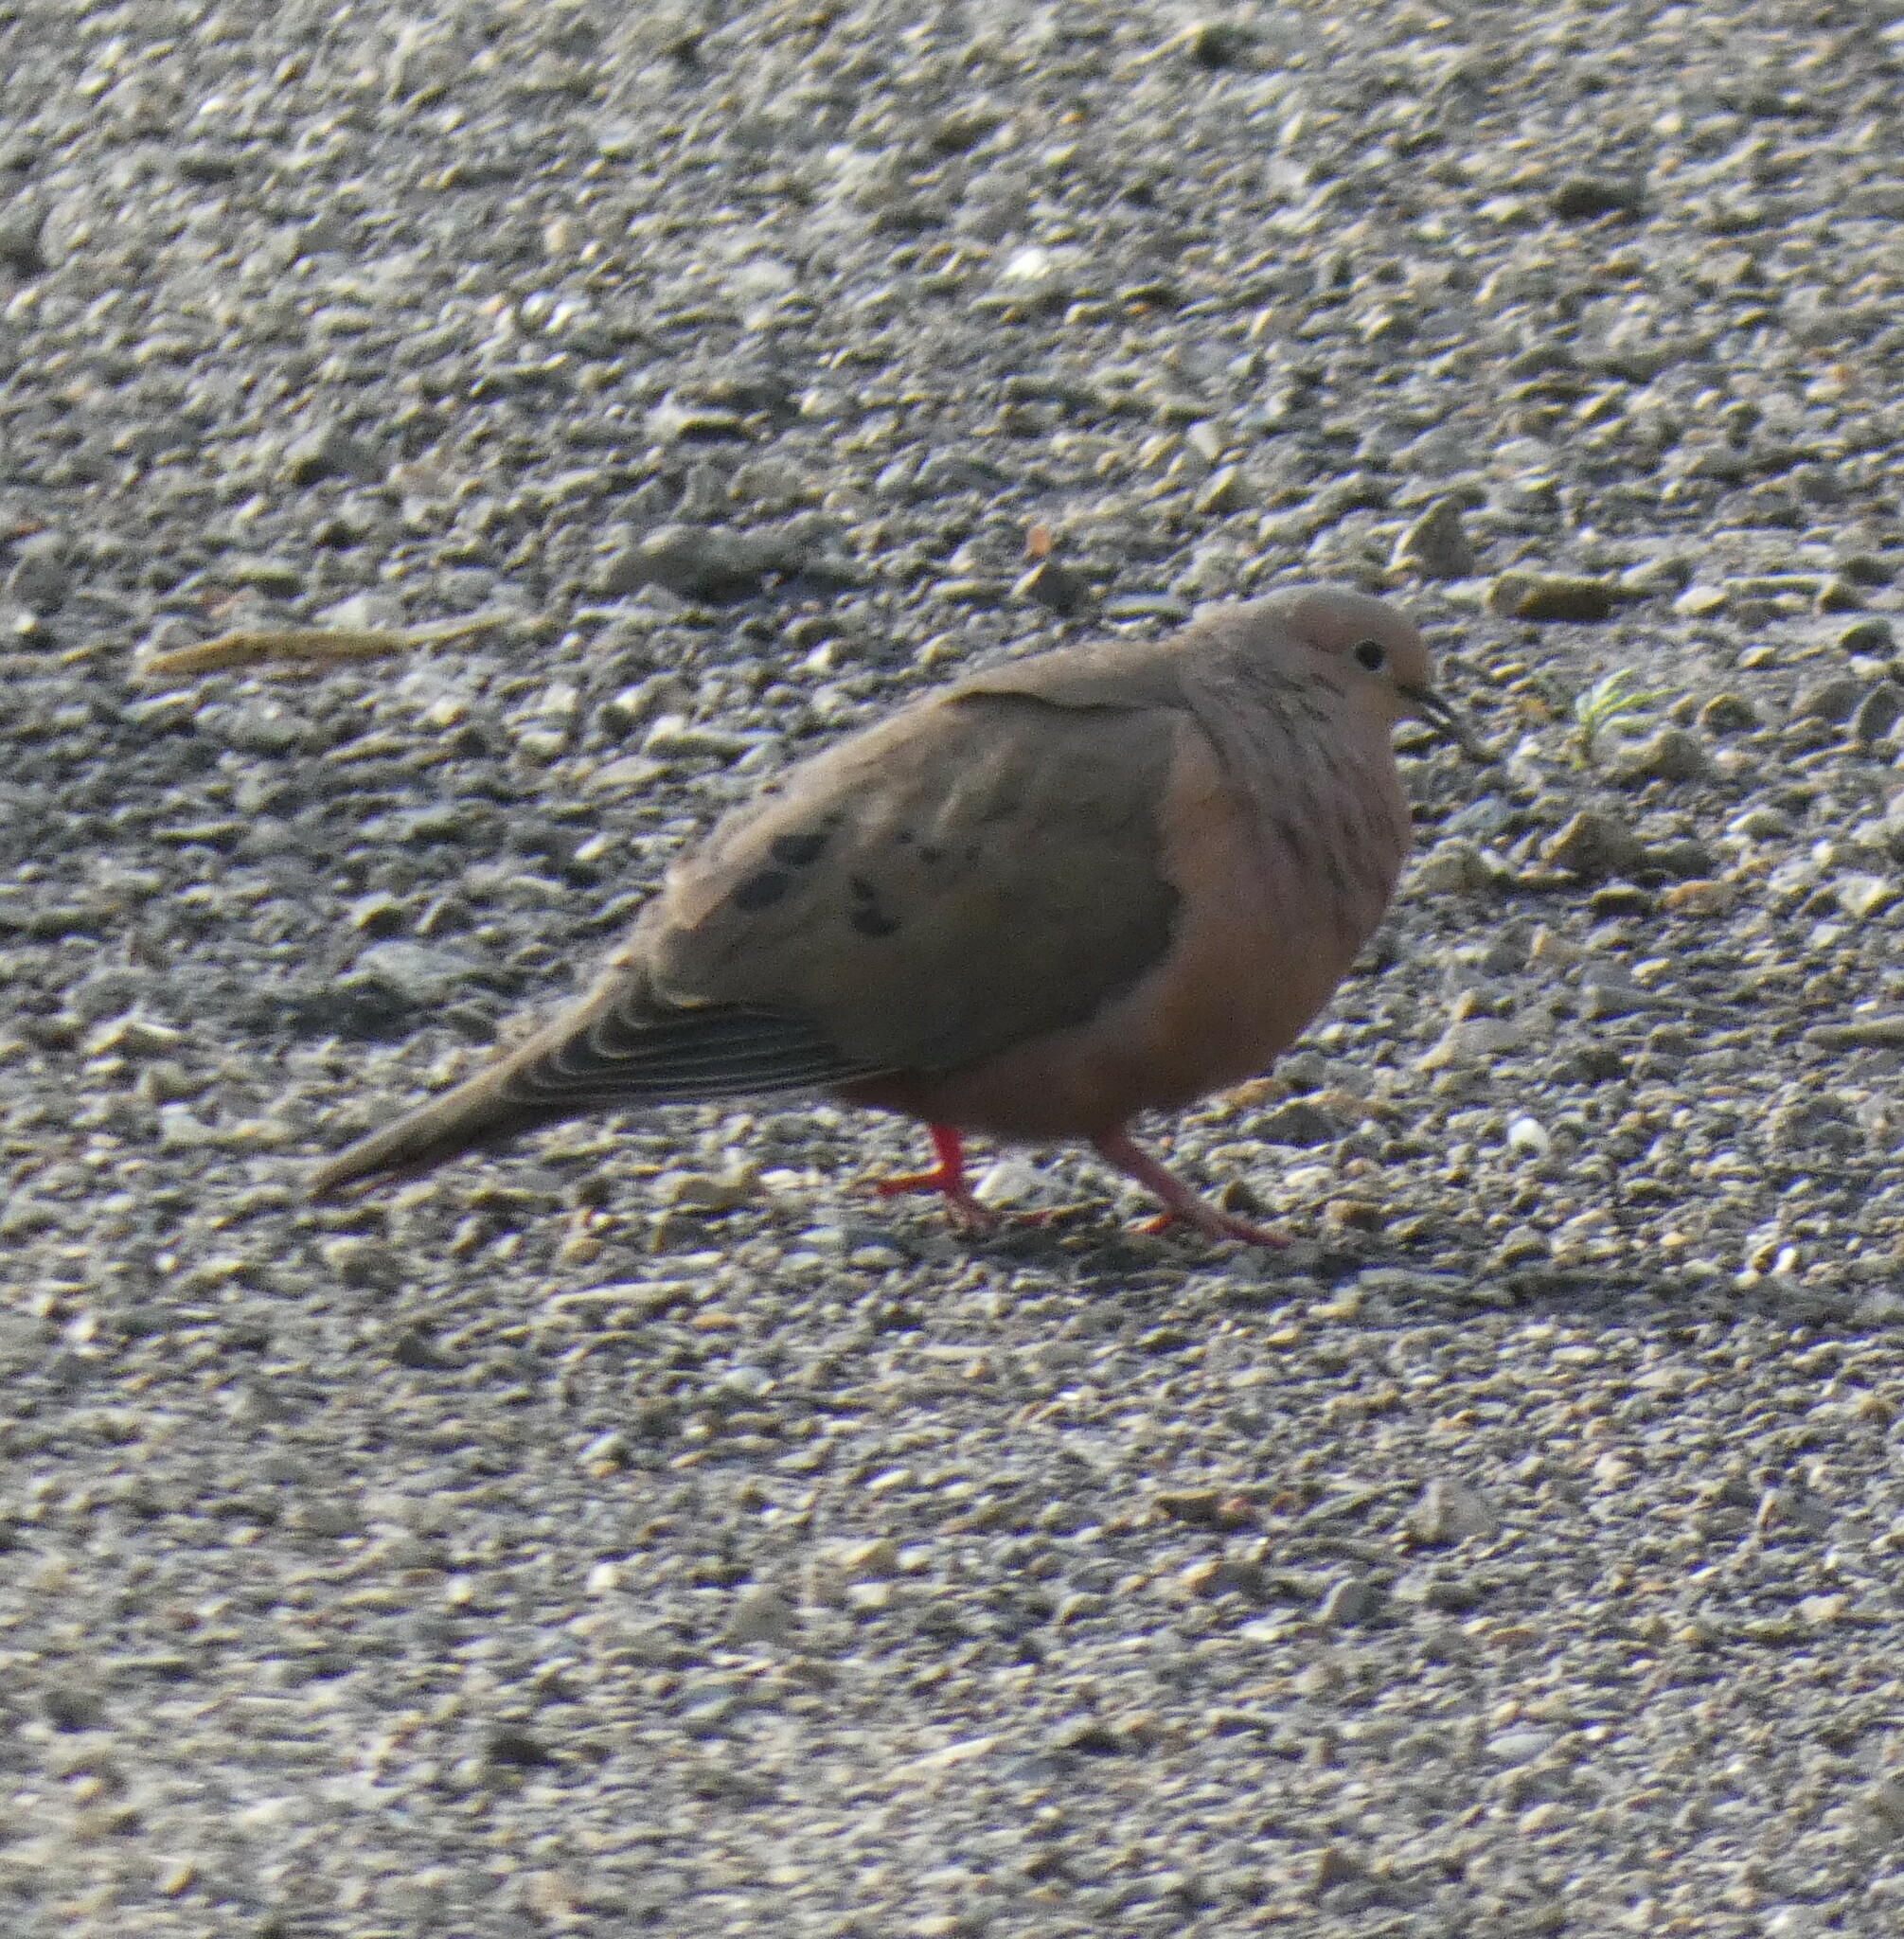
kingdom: Animalia
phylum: Chordata
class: Aves
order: Columbiformes
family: Columbidae
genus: Zenaida
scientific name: Zenaida auriculata
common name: Eared dove
